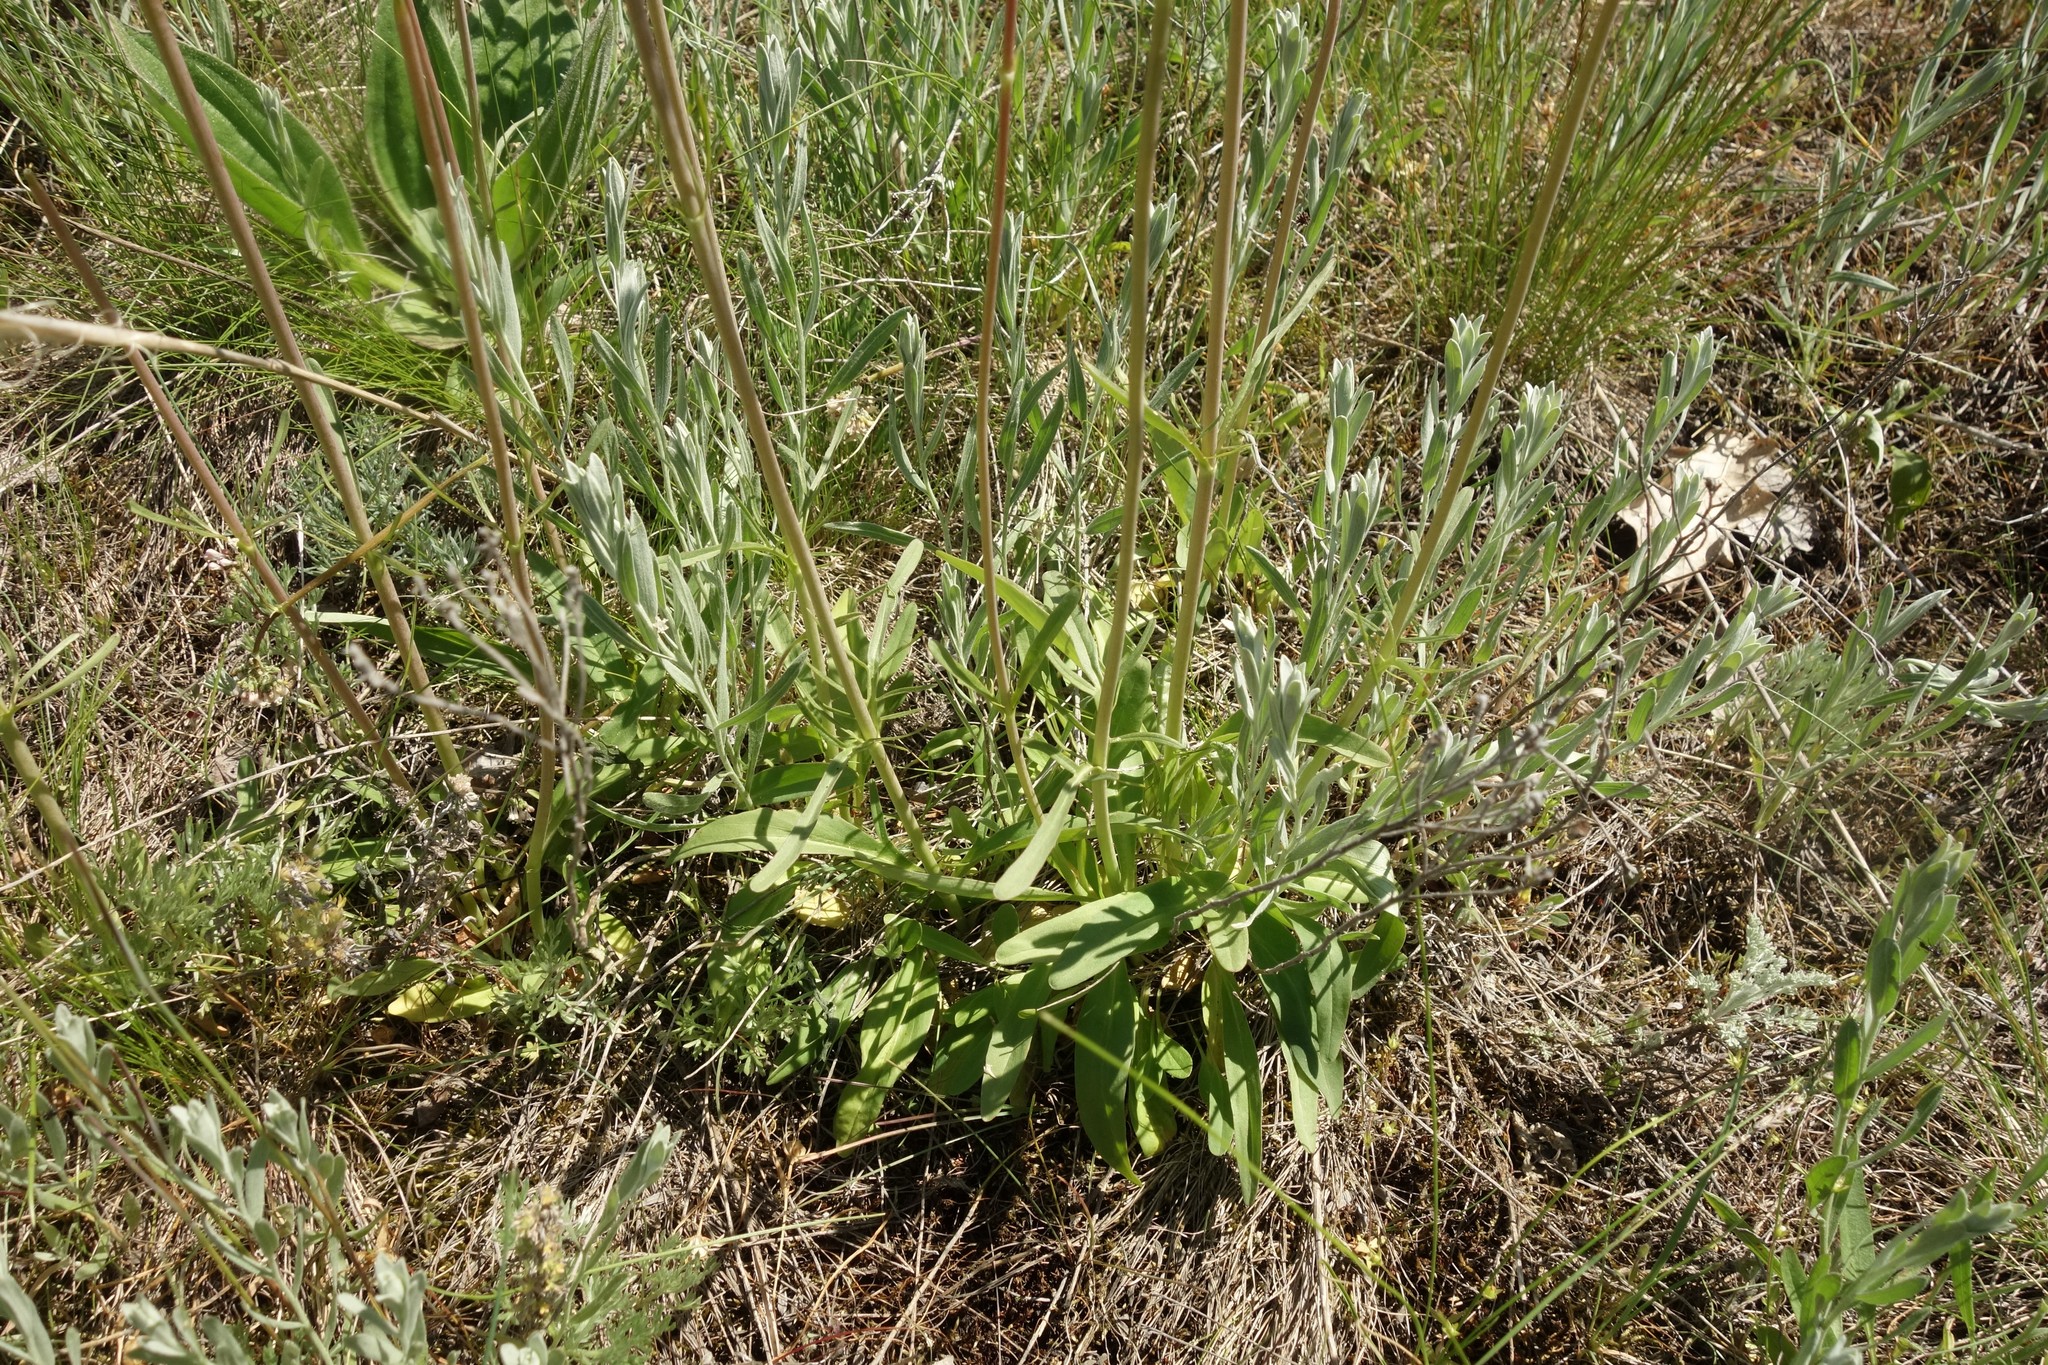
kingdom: Plantae
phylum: Tracheophyta
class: Magnoliopsida
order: Dipsacales
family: Caprifoliaceae
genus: Valeriana
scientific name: Valeriana tuberosa
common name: Tuberous valerian
